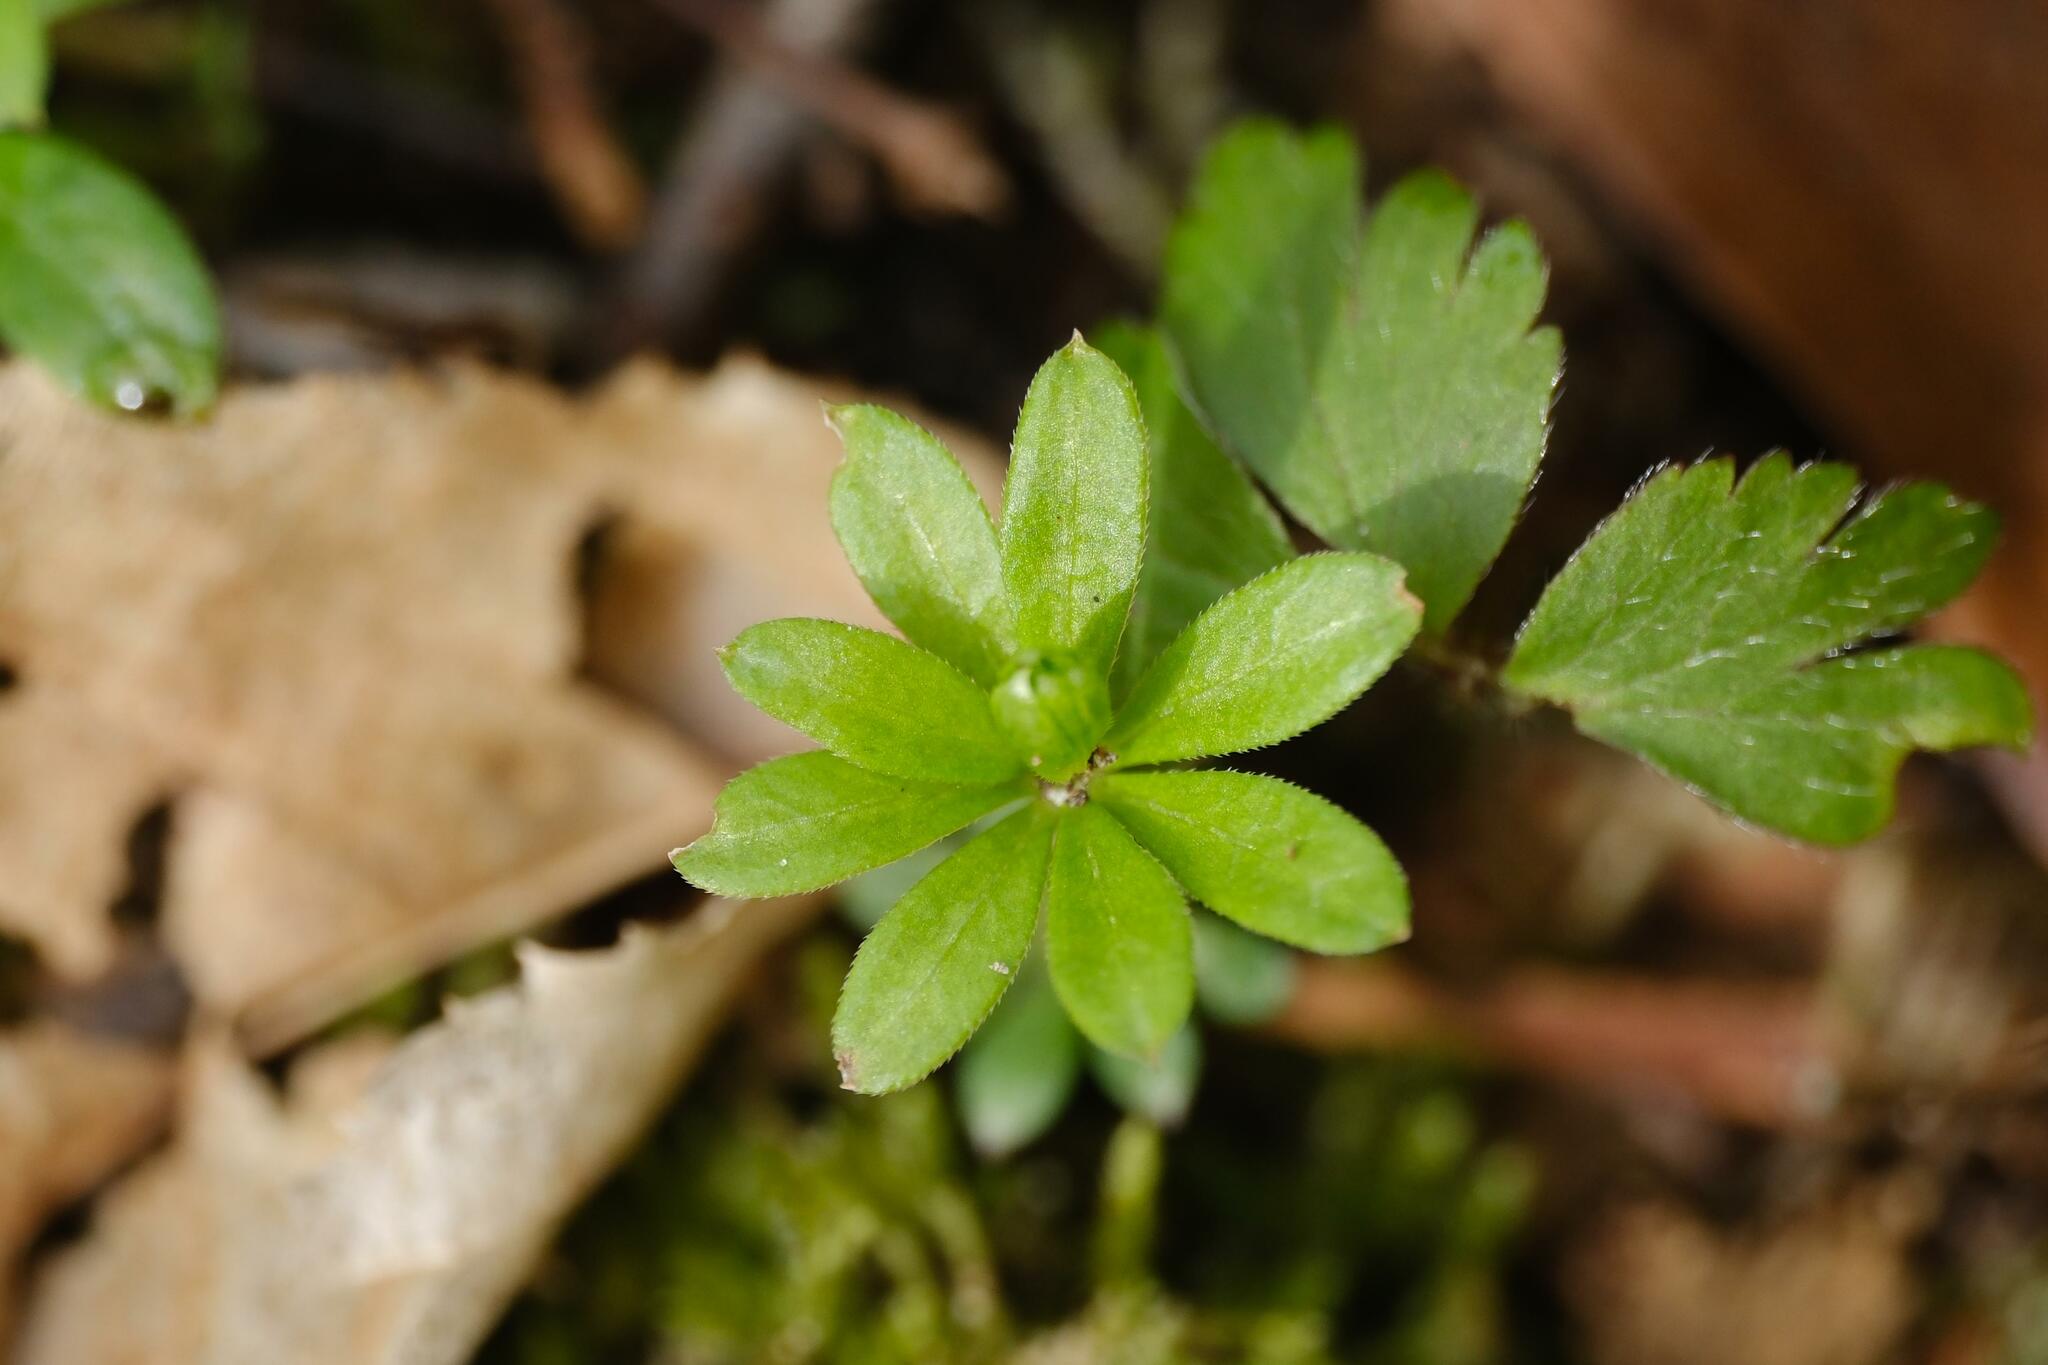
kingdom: Plantae
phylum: Tracheophyta
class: Magnoliopsida
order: Gentianales
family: Rubiaceae
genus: Galium
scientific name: Galium odoratum
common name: Sweet woodruff
